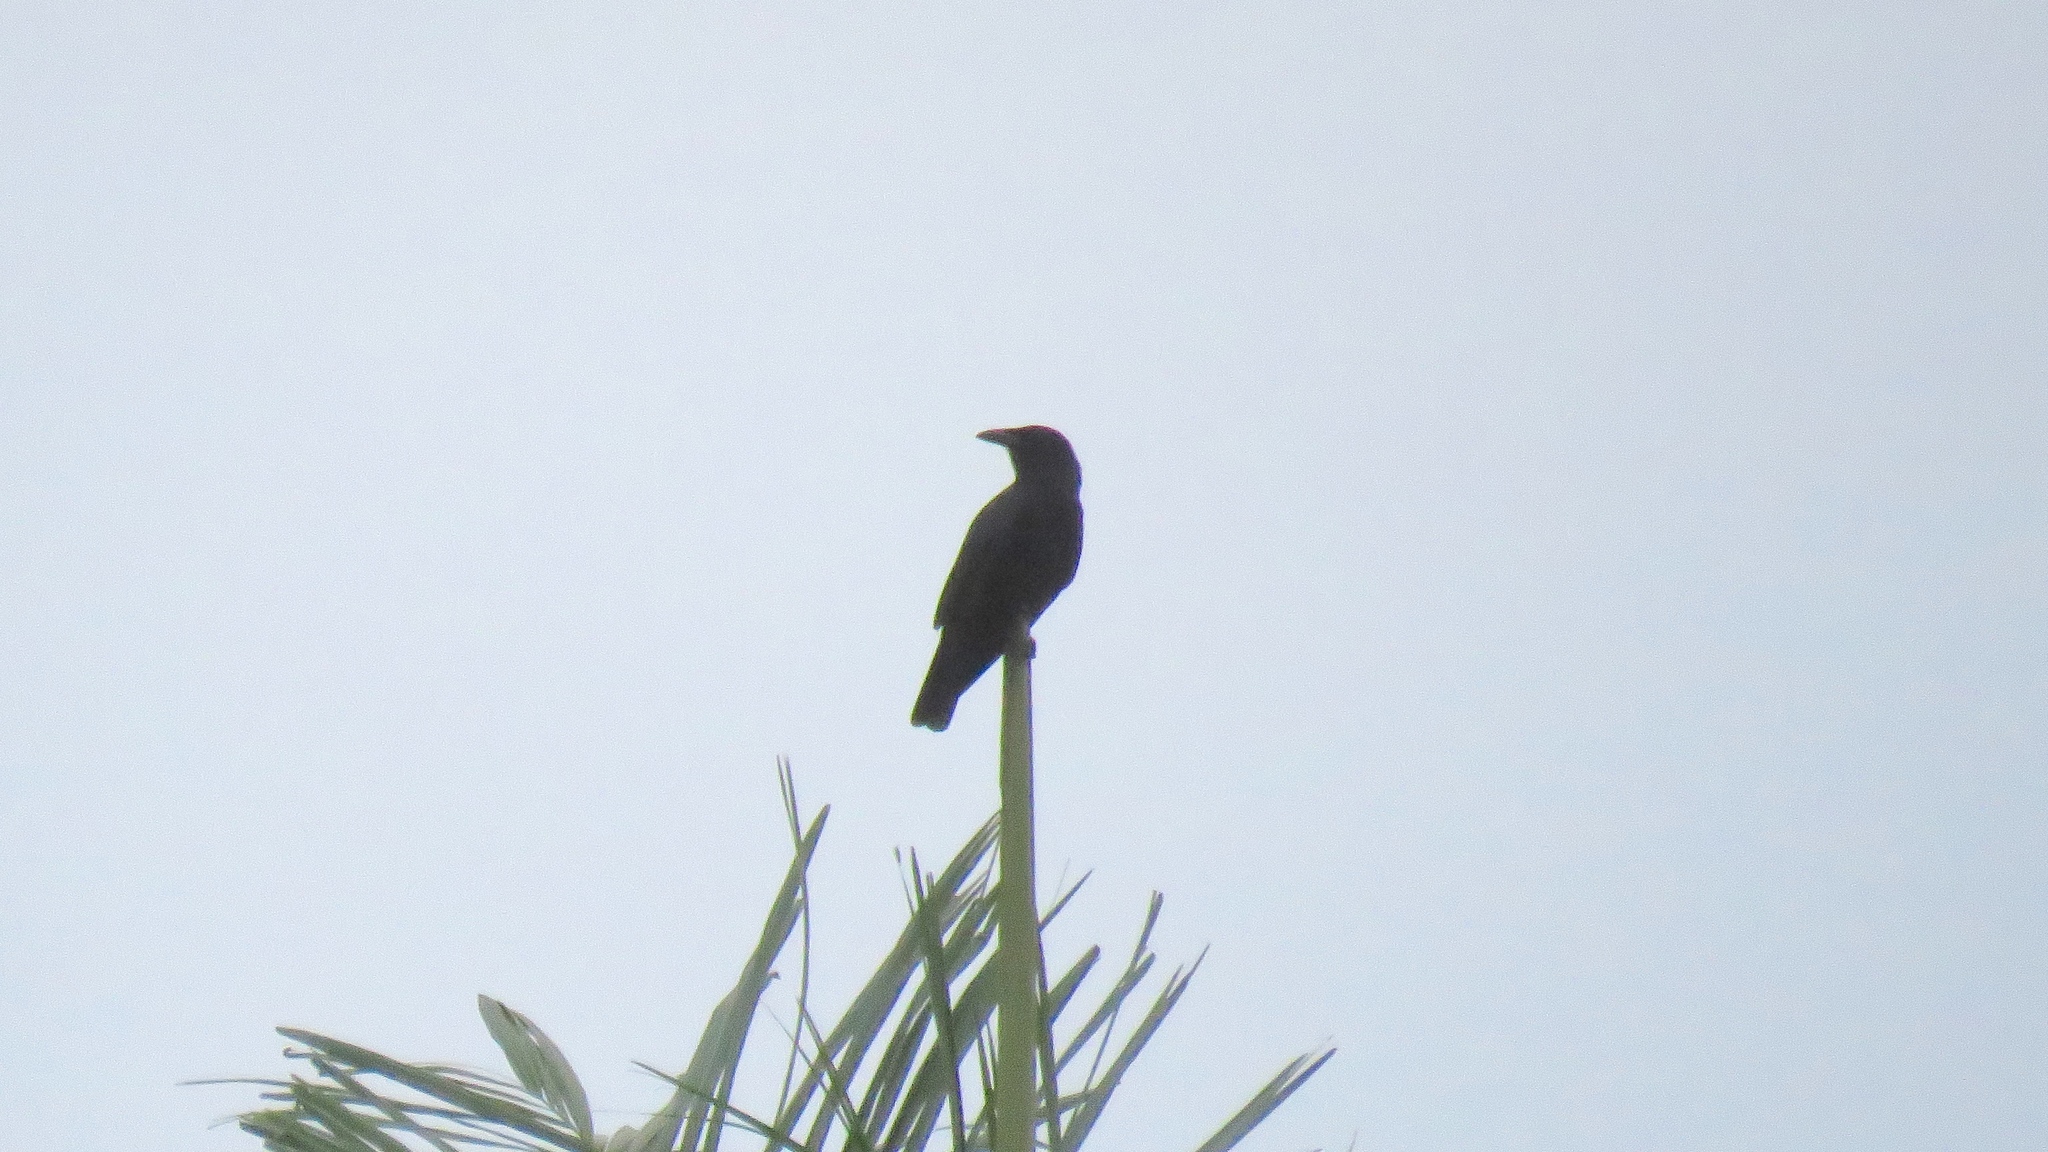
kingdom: Animalia
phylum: Chordata
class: Aves
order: Passeriformes
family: Corvidae
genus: Corvus
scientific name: Corvus jamaicensis
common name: Jamaican crow
